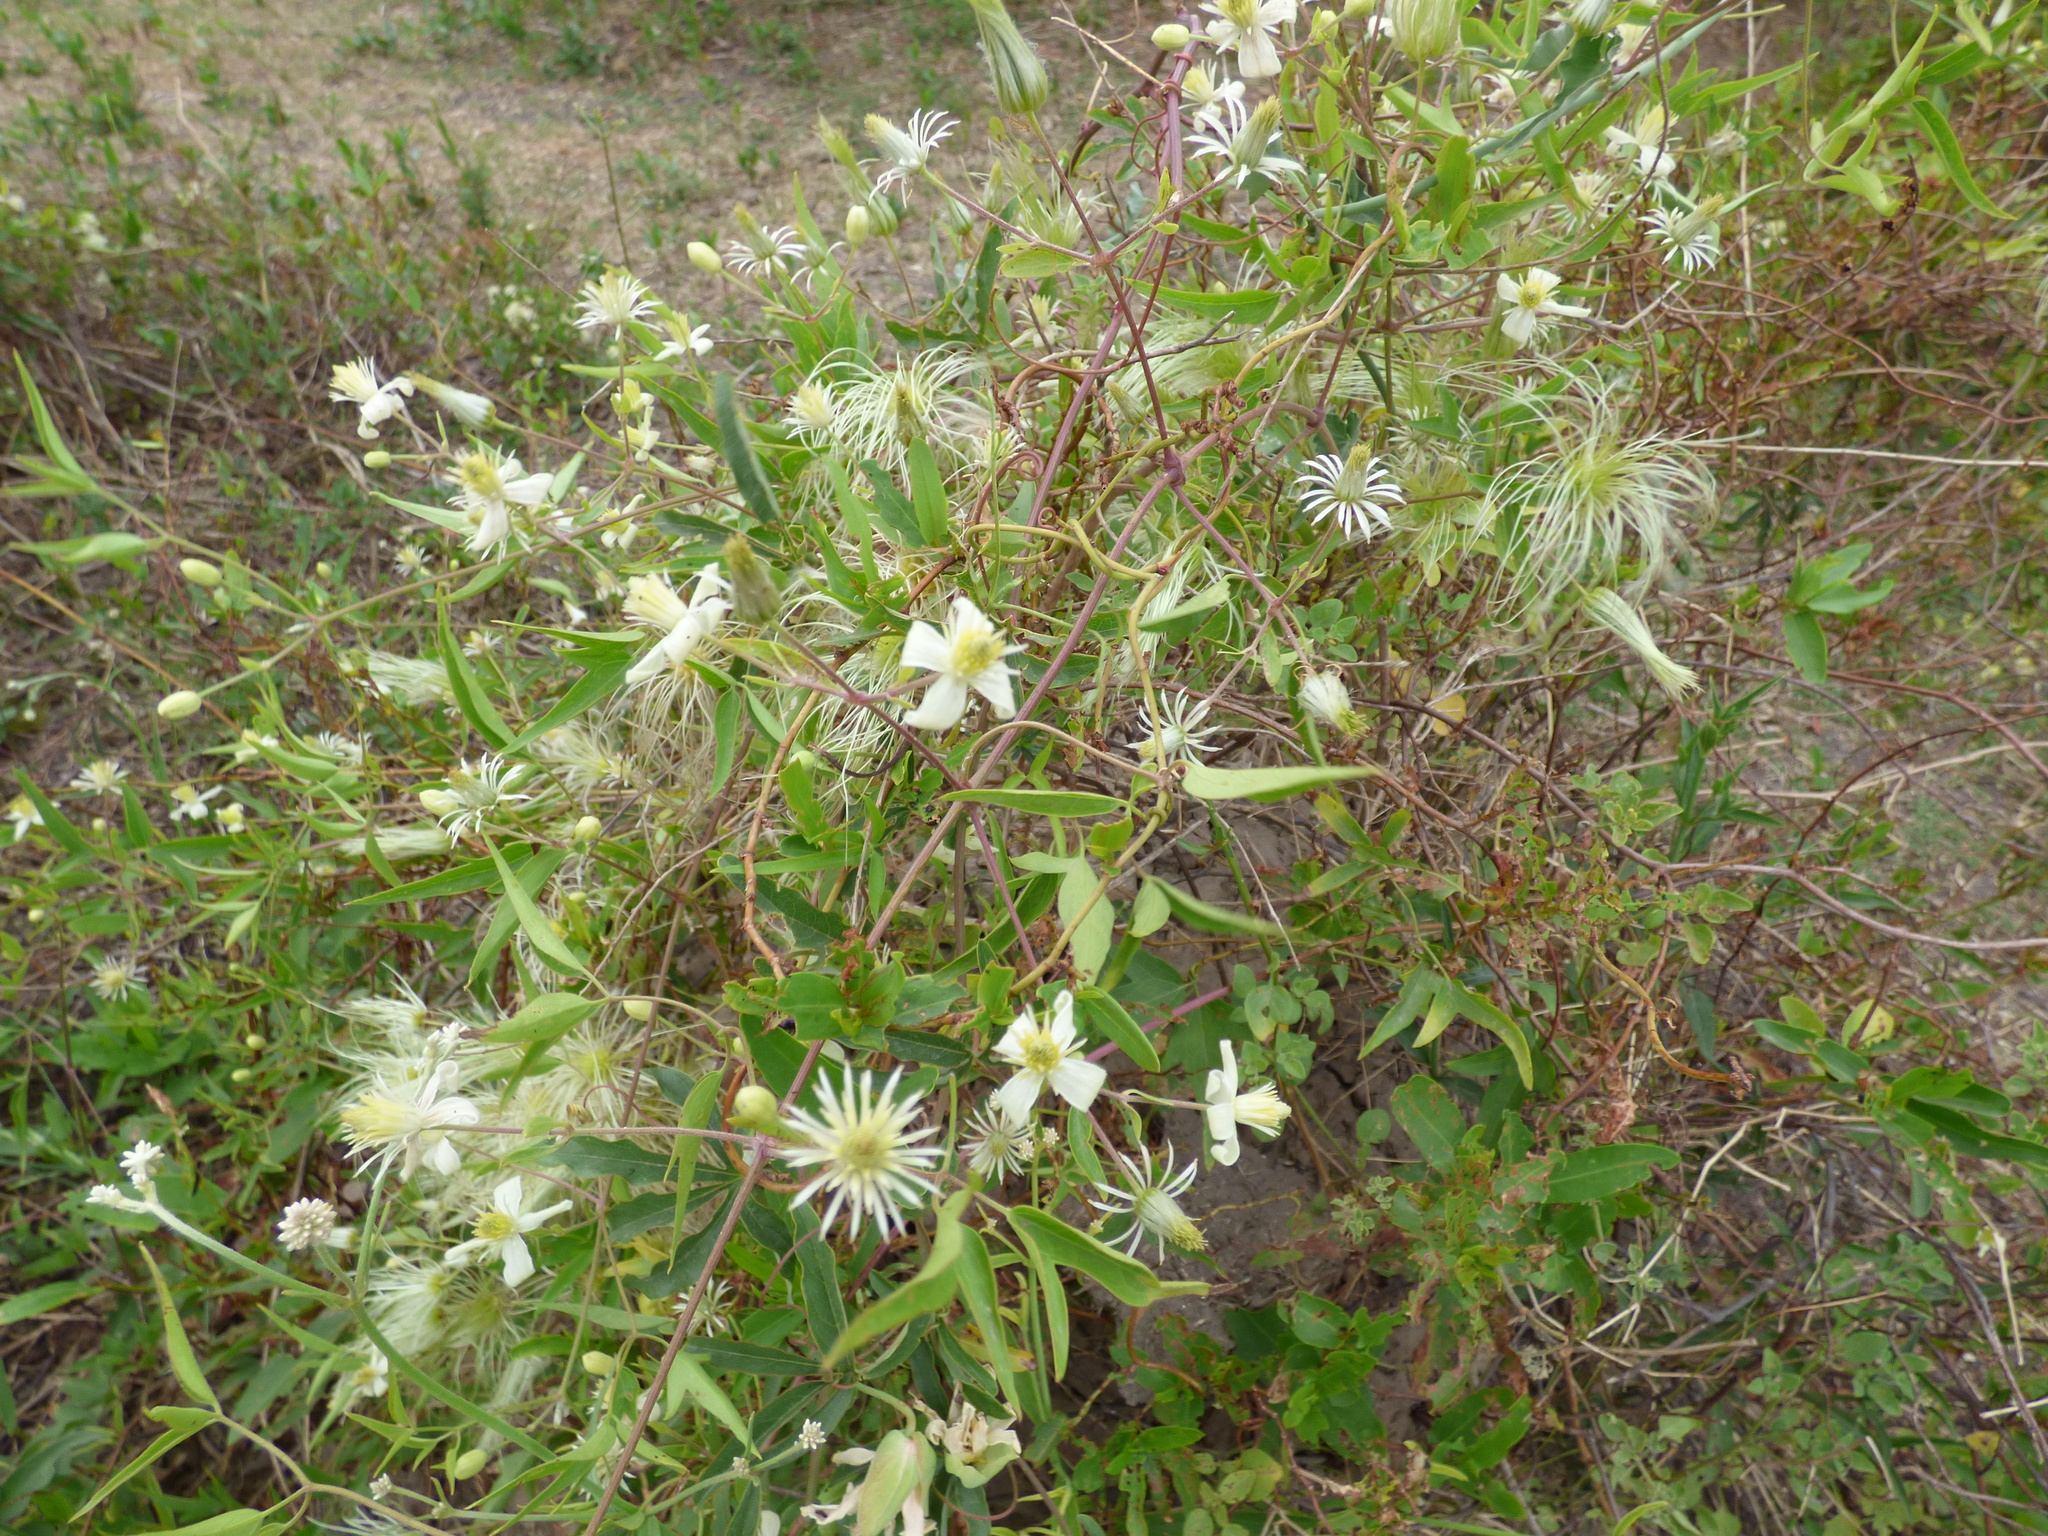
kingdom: Plantae
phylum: Tracheophyta
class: Magnoliopsida
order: Ranunculales
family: Ranunculaceae
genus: Clematis
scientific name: Clematis montevidensis
